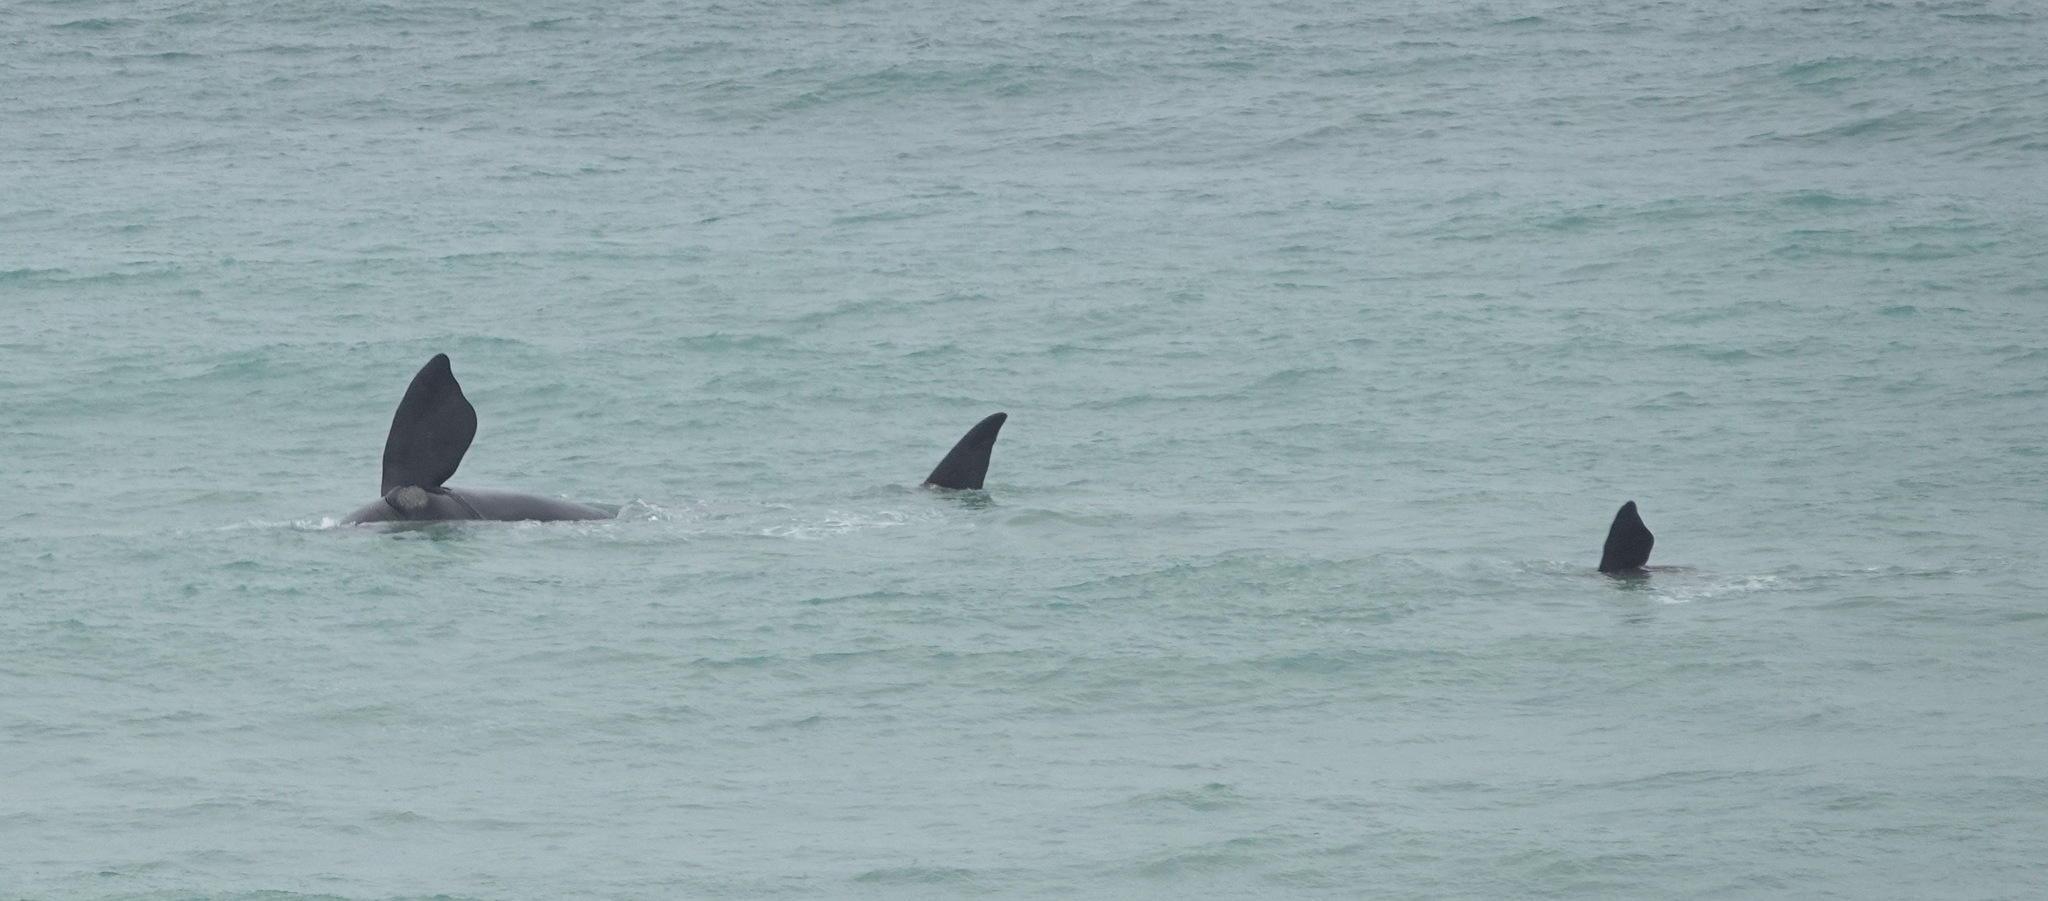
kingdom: Animalia
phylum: Chordata
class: Mammalia
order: Cetacea
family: Balaenidae
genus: Eubalaena
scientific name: Eubalaena australis
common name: Southern right whale
